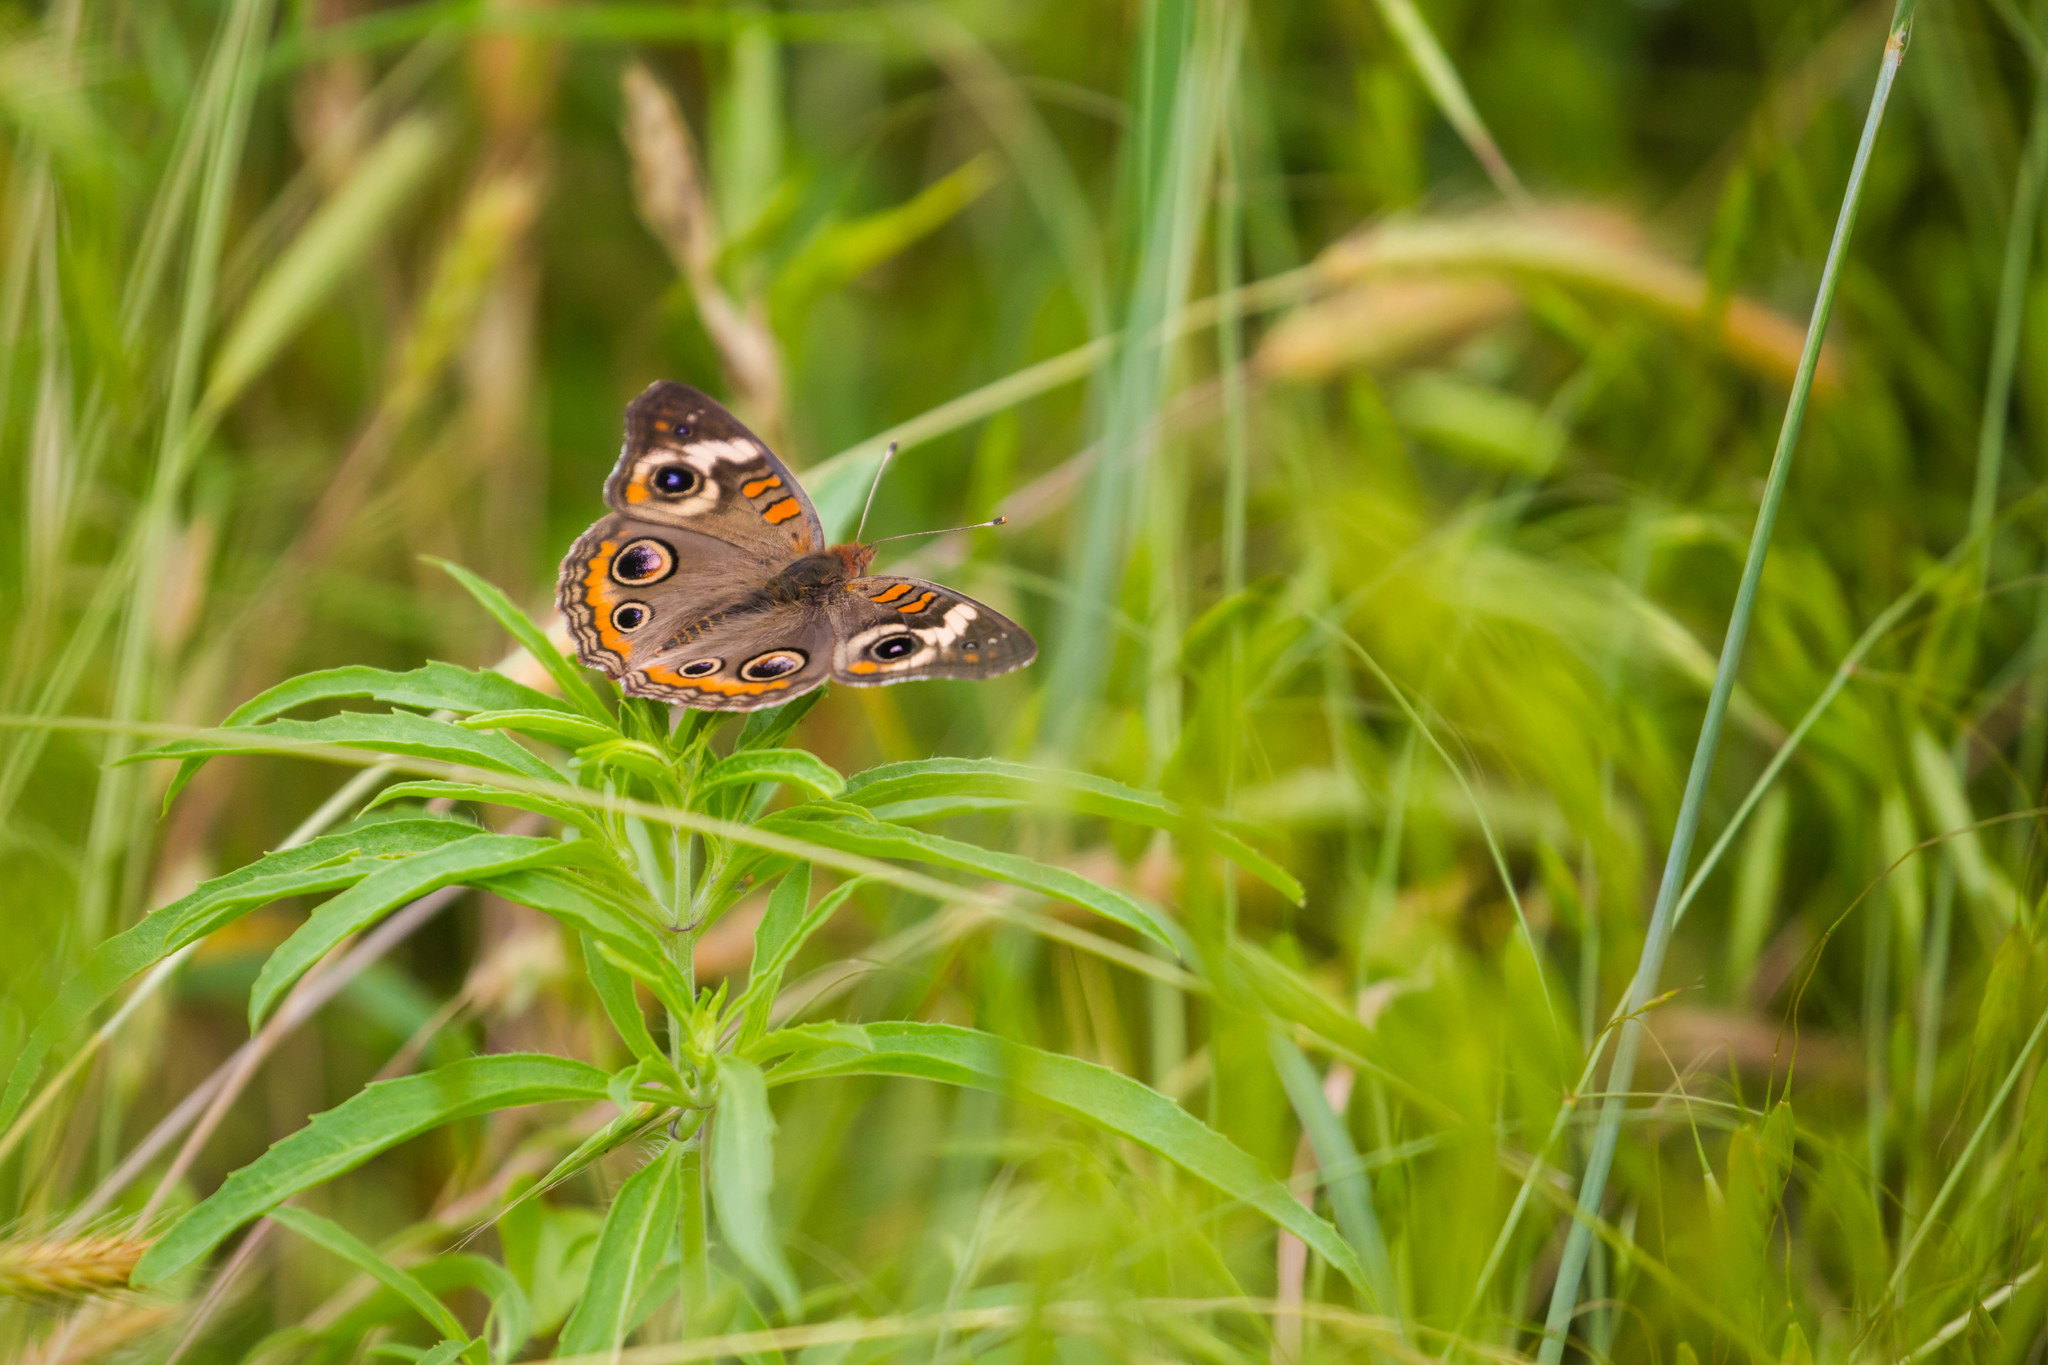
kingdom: Animalia
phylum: Arthropoda
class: Insecta
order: Lepidoptera
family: Nymphalidae
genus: Junonia
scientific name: Junonia coenia
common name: Common buckeye
